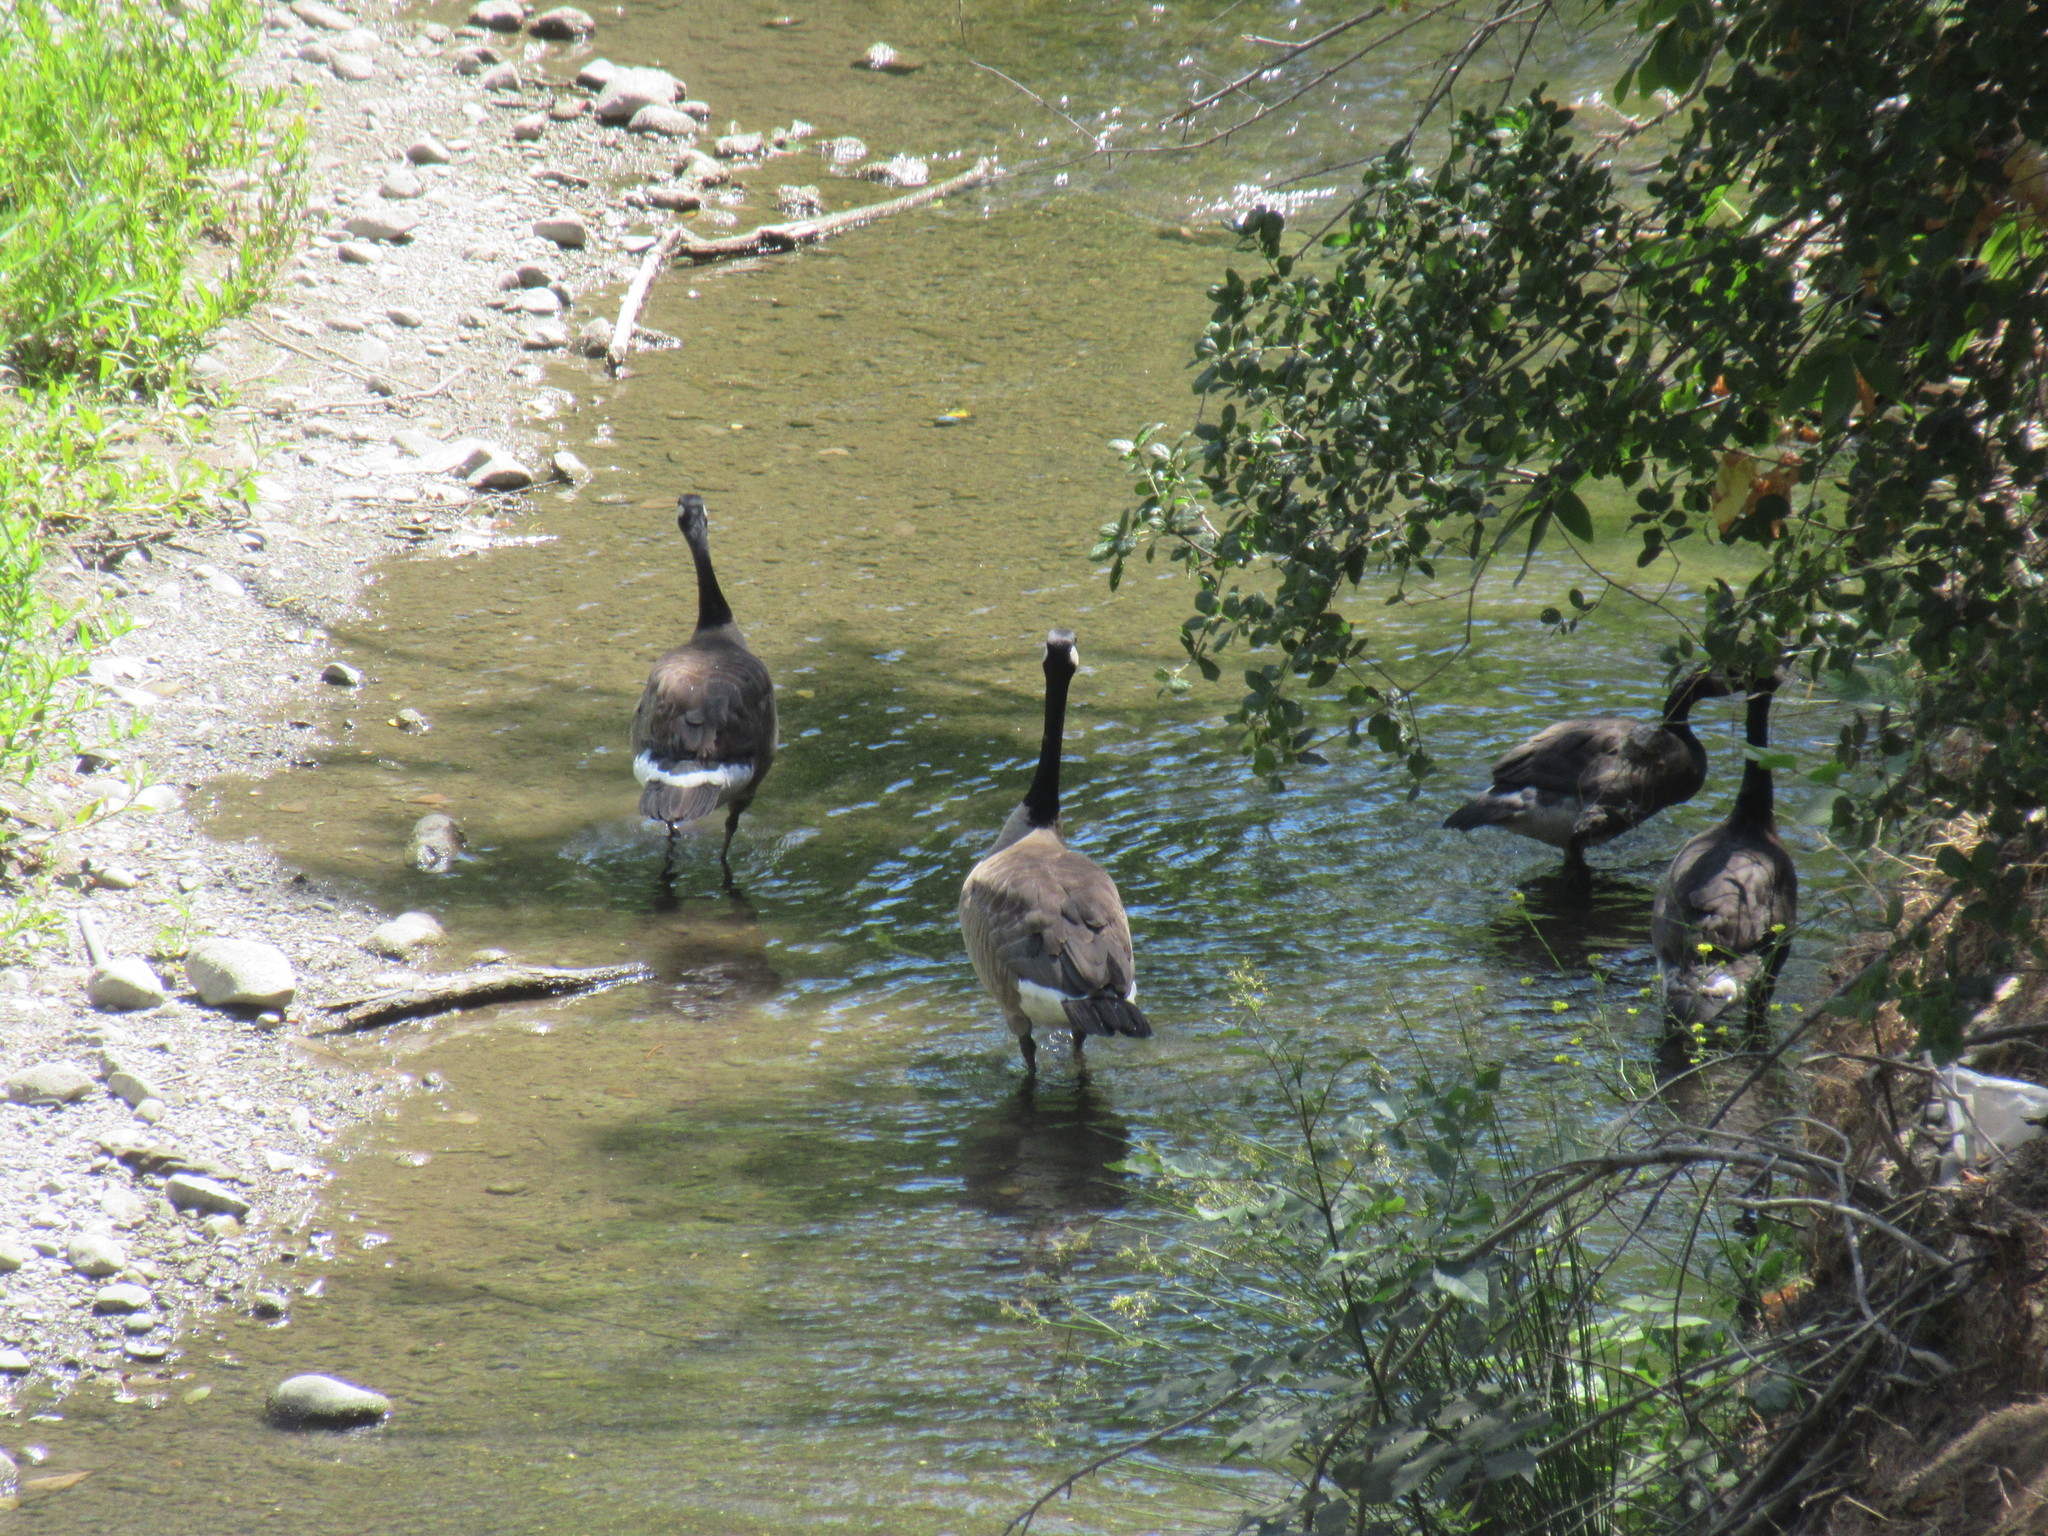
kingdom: Animalia
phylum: Chordata
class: Aves
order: Anseriformes
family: Anatidae
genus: Branta
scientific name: Branta canadensis
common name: Canada goose
